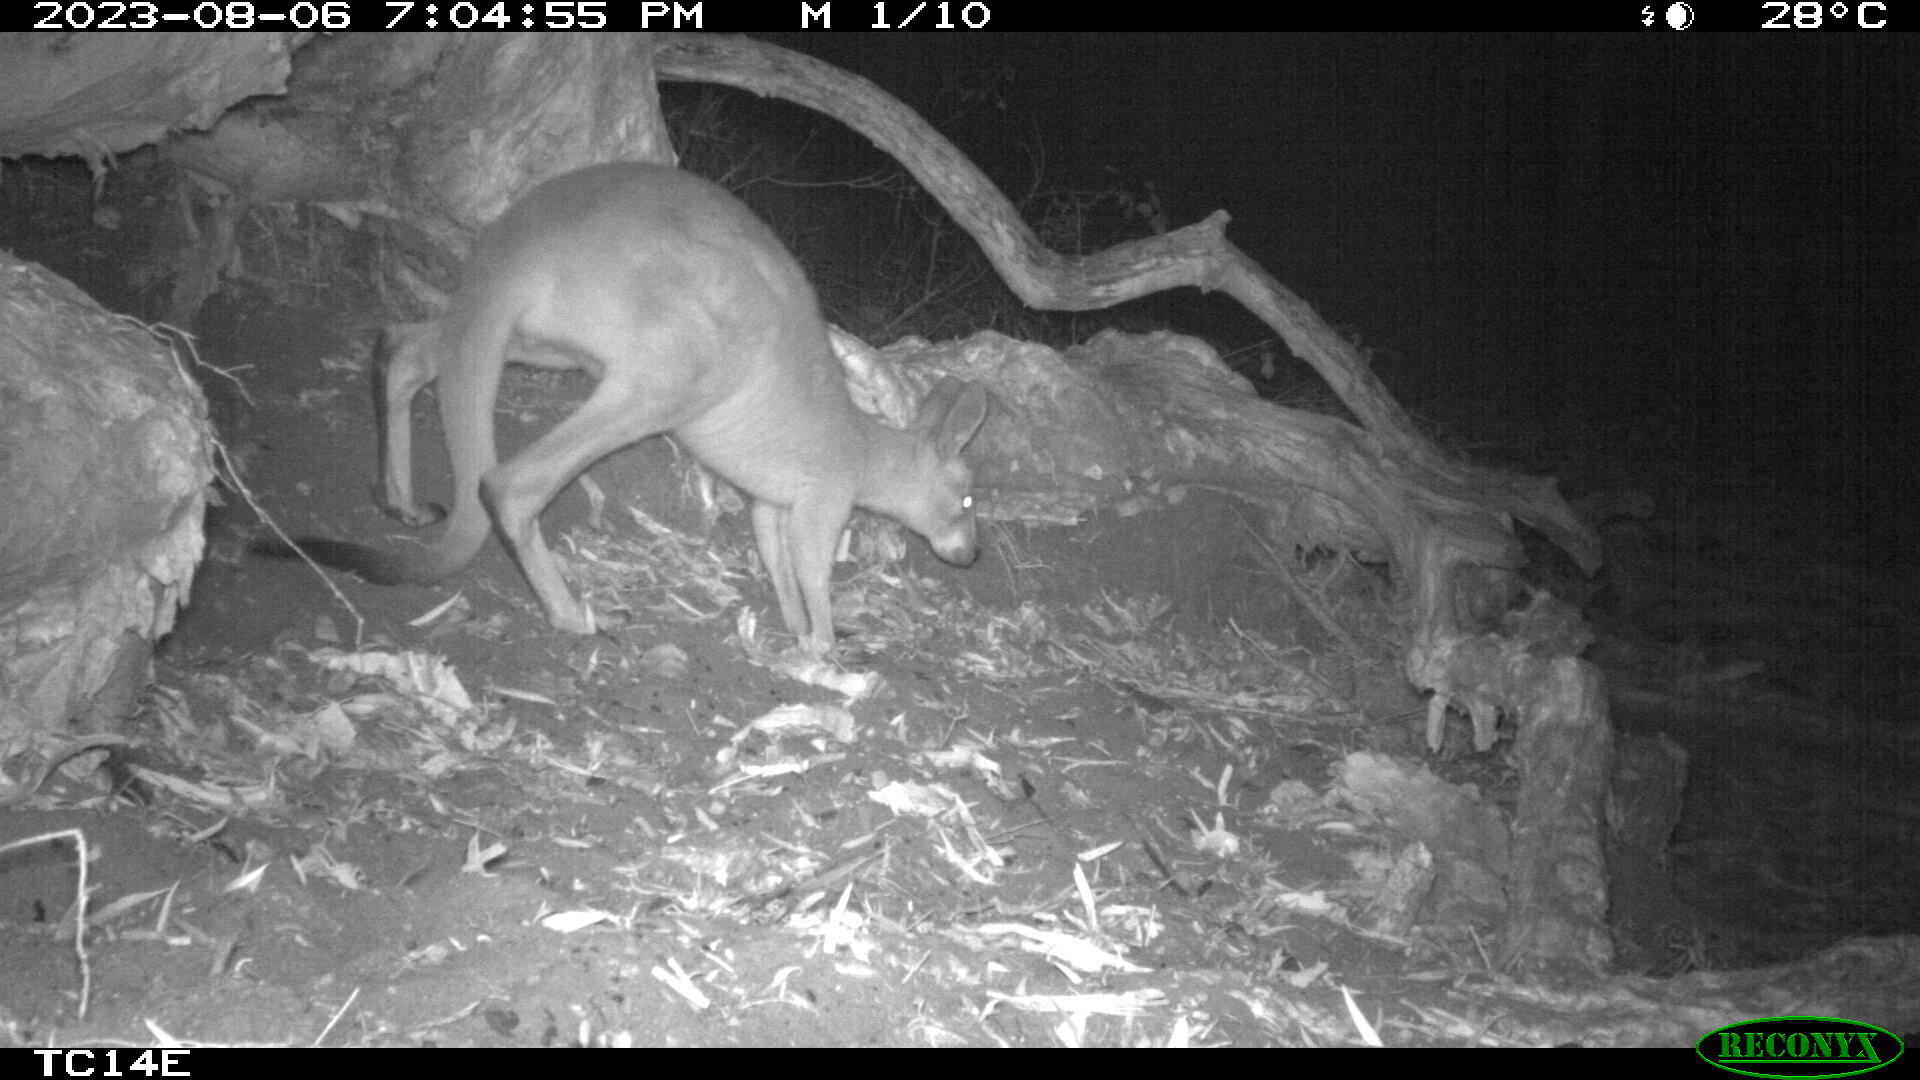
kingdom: Animalia
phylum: Chordata
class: Mammalia
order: Diprotodontia
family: Macropodidae
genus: Macropus
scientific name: Macropus giganteus
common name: Eastern grey kangaroo
